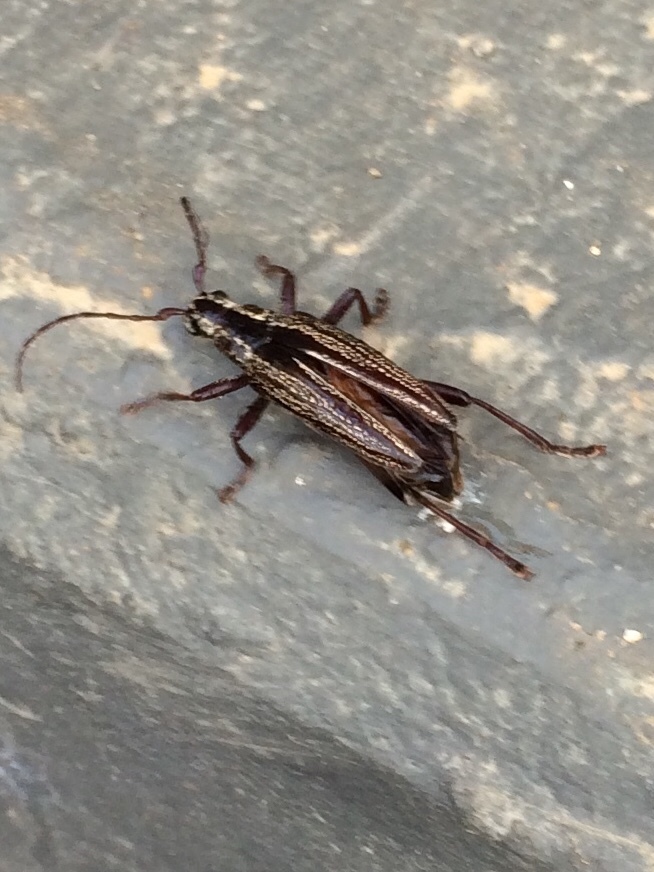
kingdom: Animalia
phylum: Arthropoda
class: Insecta
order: Coleoptera
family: Cerambycidae
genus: Coptomma
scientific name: Coptomma sulcatum
